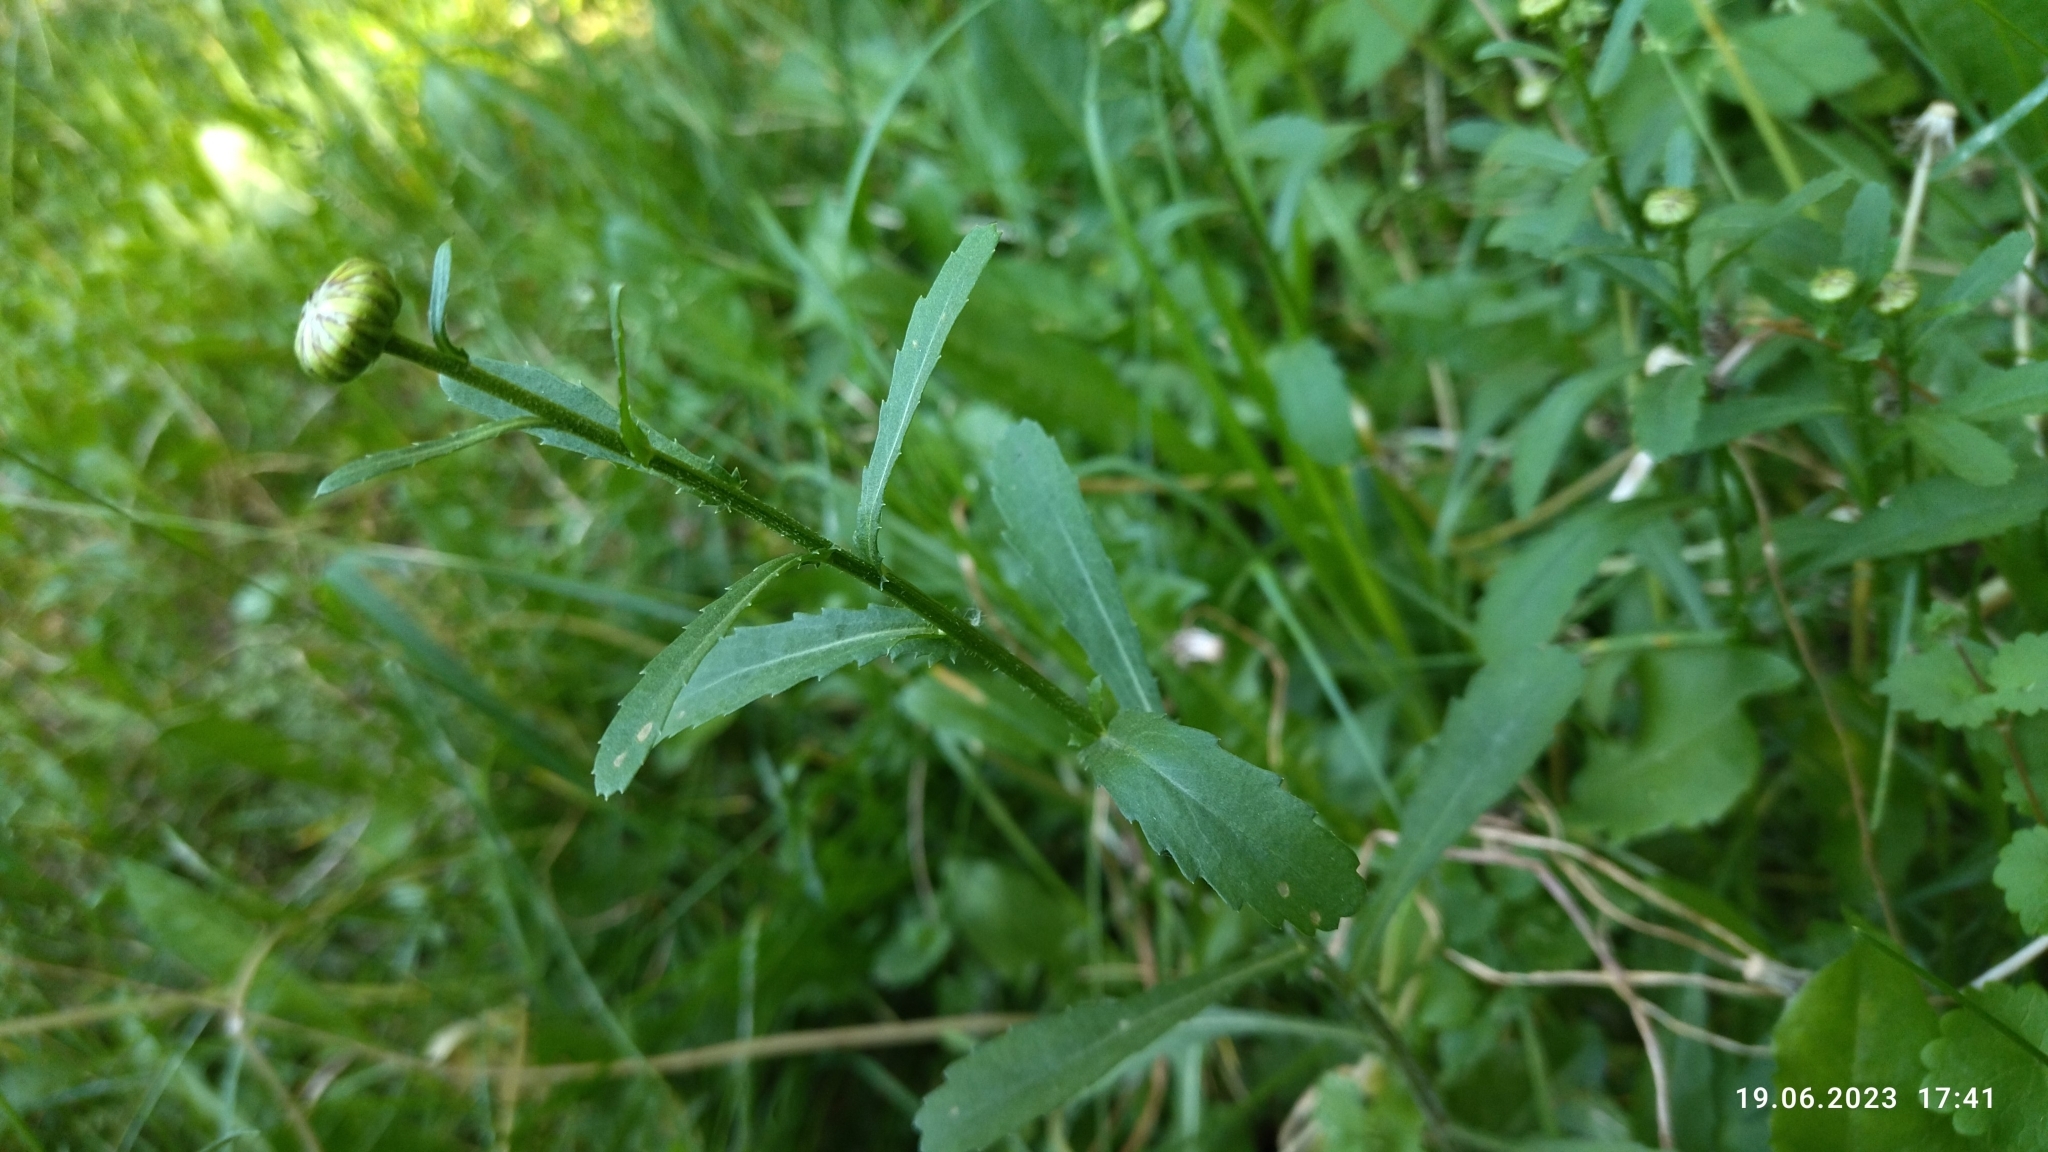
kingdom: Plantae
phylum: Tracheophyta
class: Magnoliopsida
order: Asterales
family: Asteraceae
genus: Leucanthemum
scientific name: Leucanthemum vulgare
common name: Oxeye daisy
